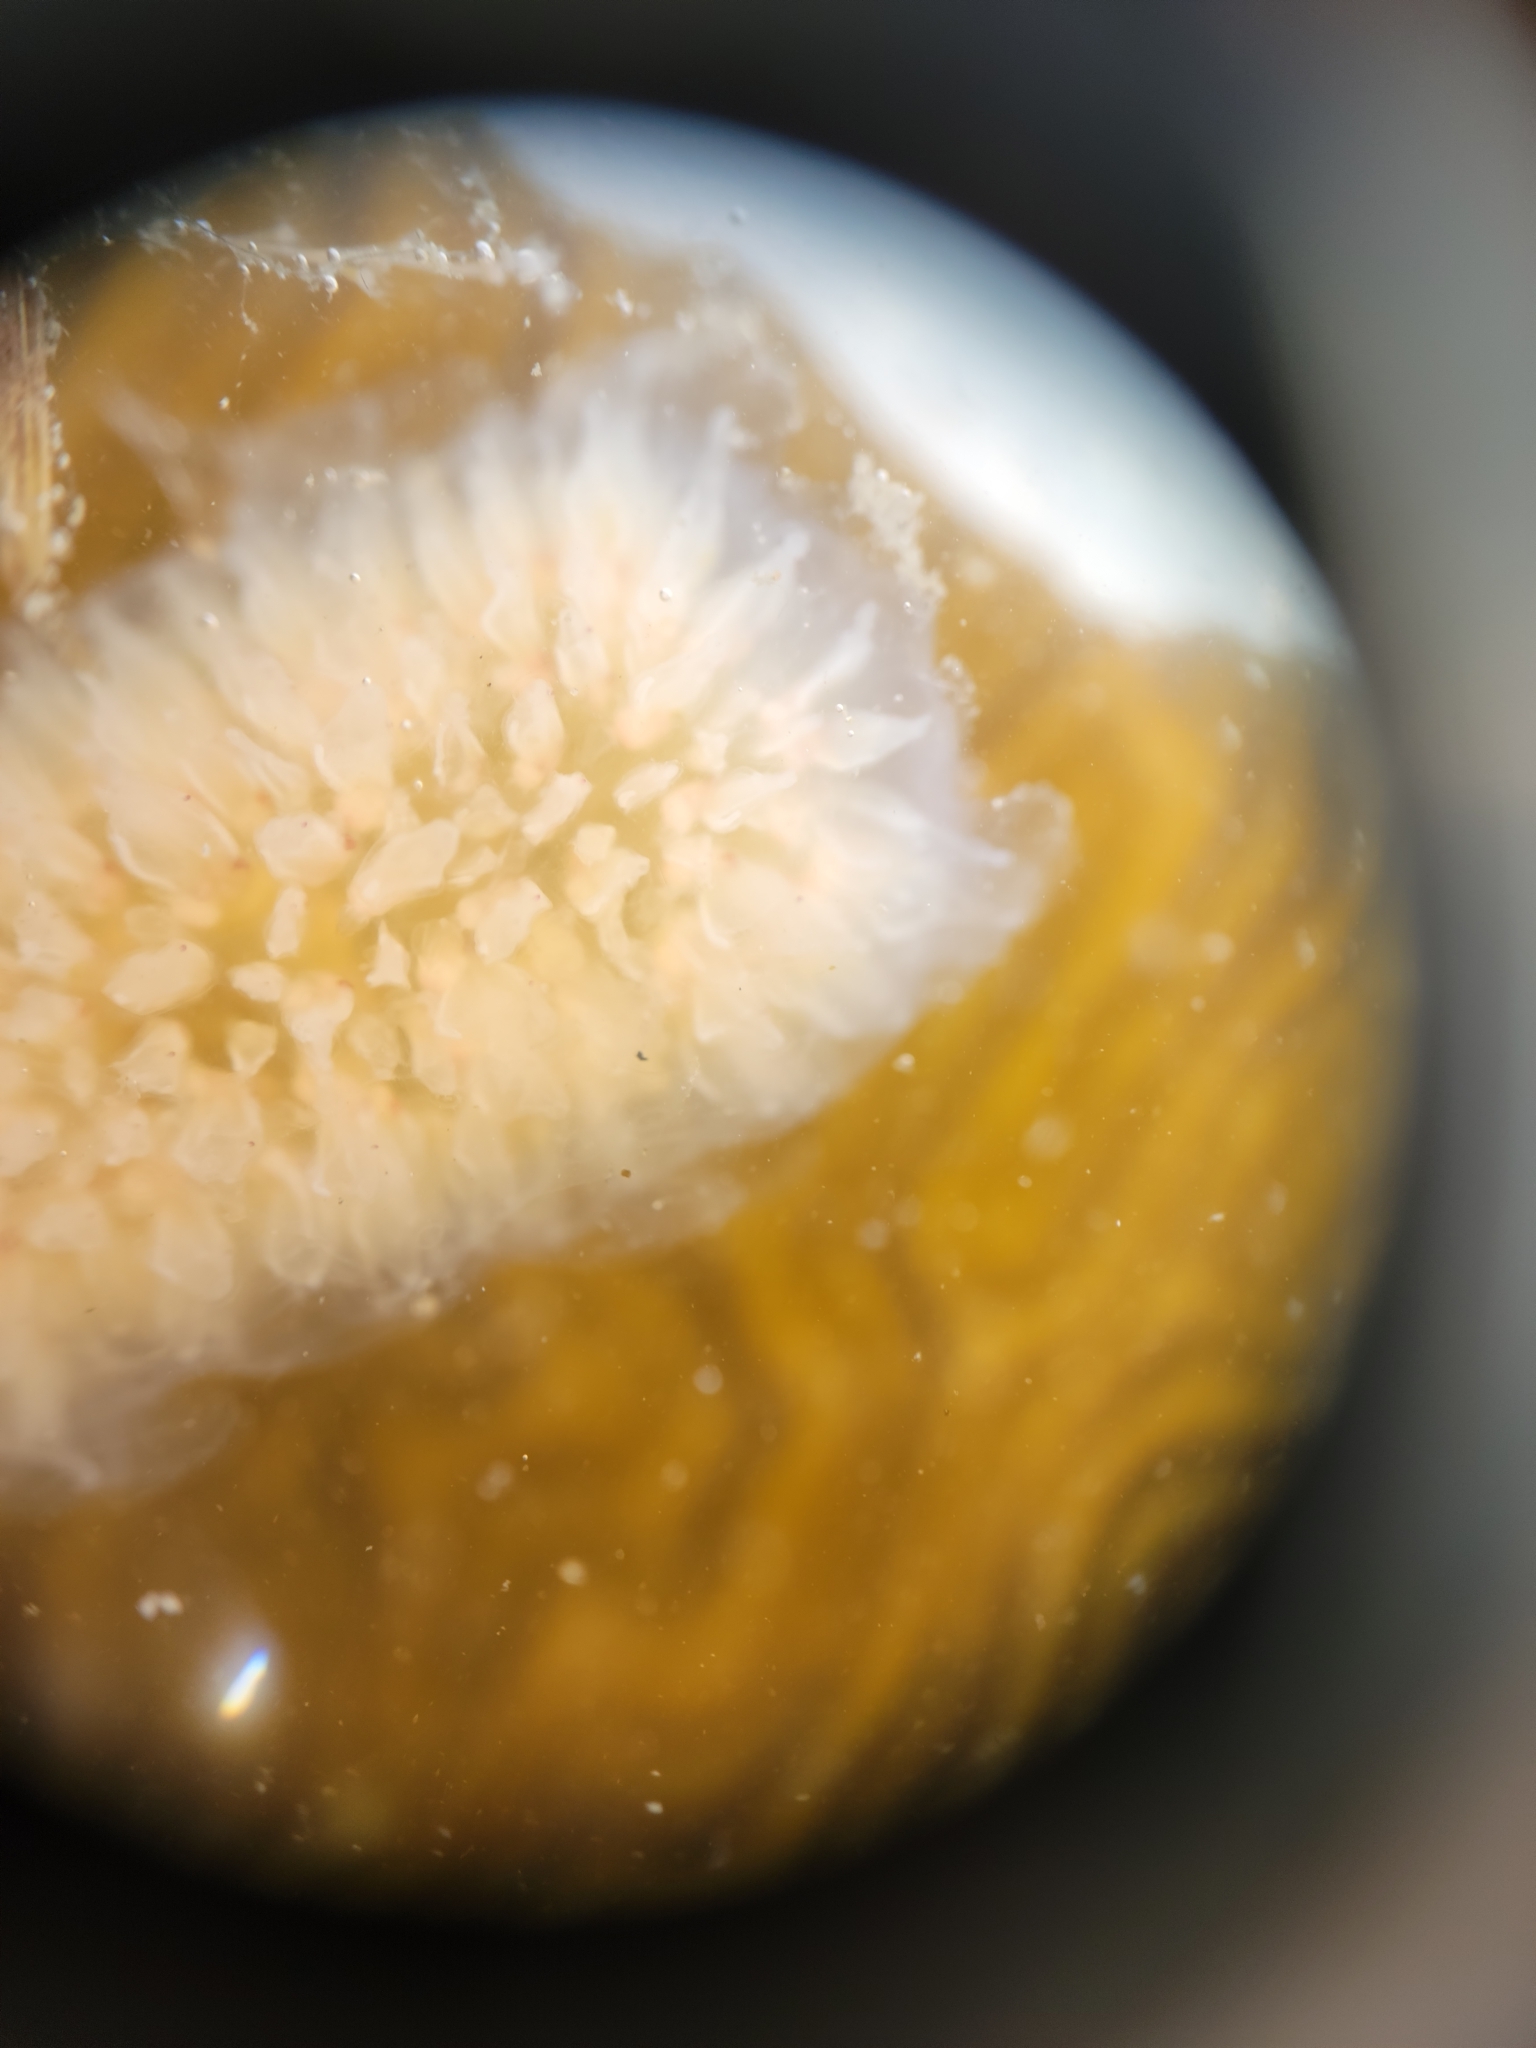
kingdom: Animalia
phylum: Chordata
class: Thaliacea
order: Pyrosomatida
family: Pyrosomatidae
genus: Pyrosoma
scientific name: Pyrosoma atlanticum
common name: Atlantic pyrosomes
